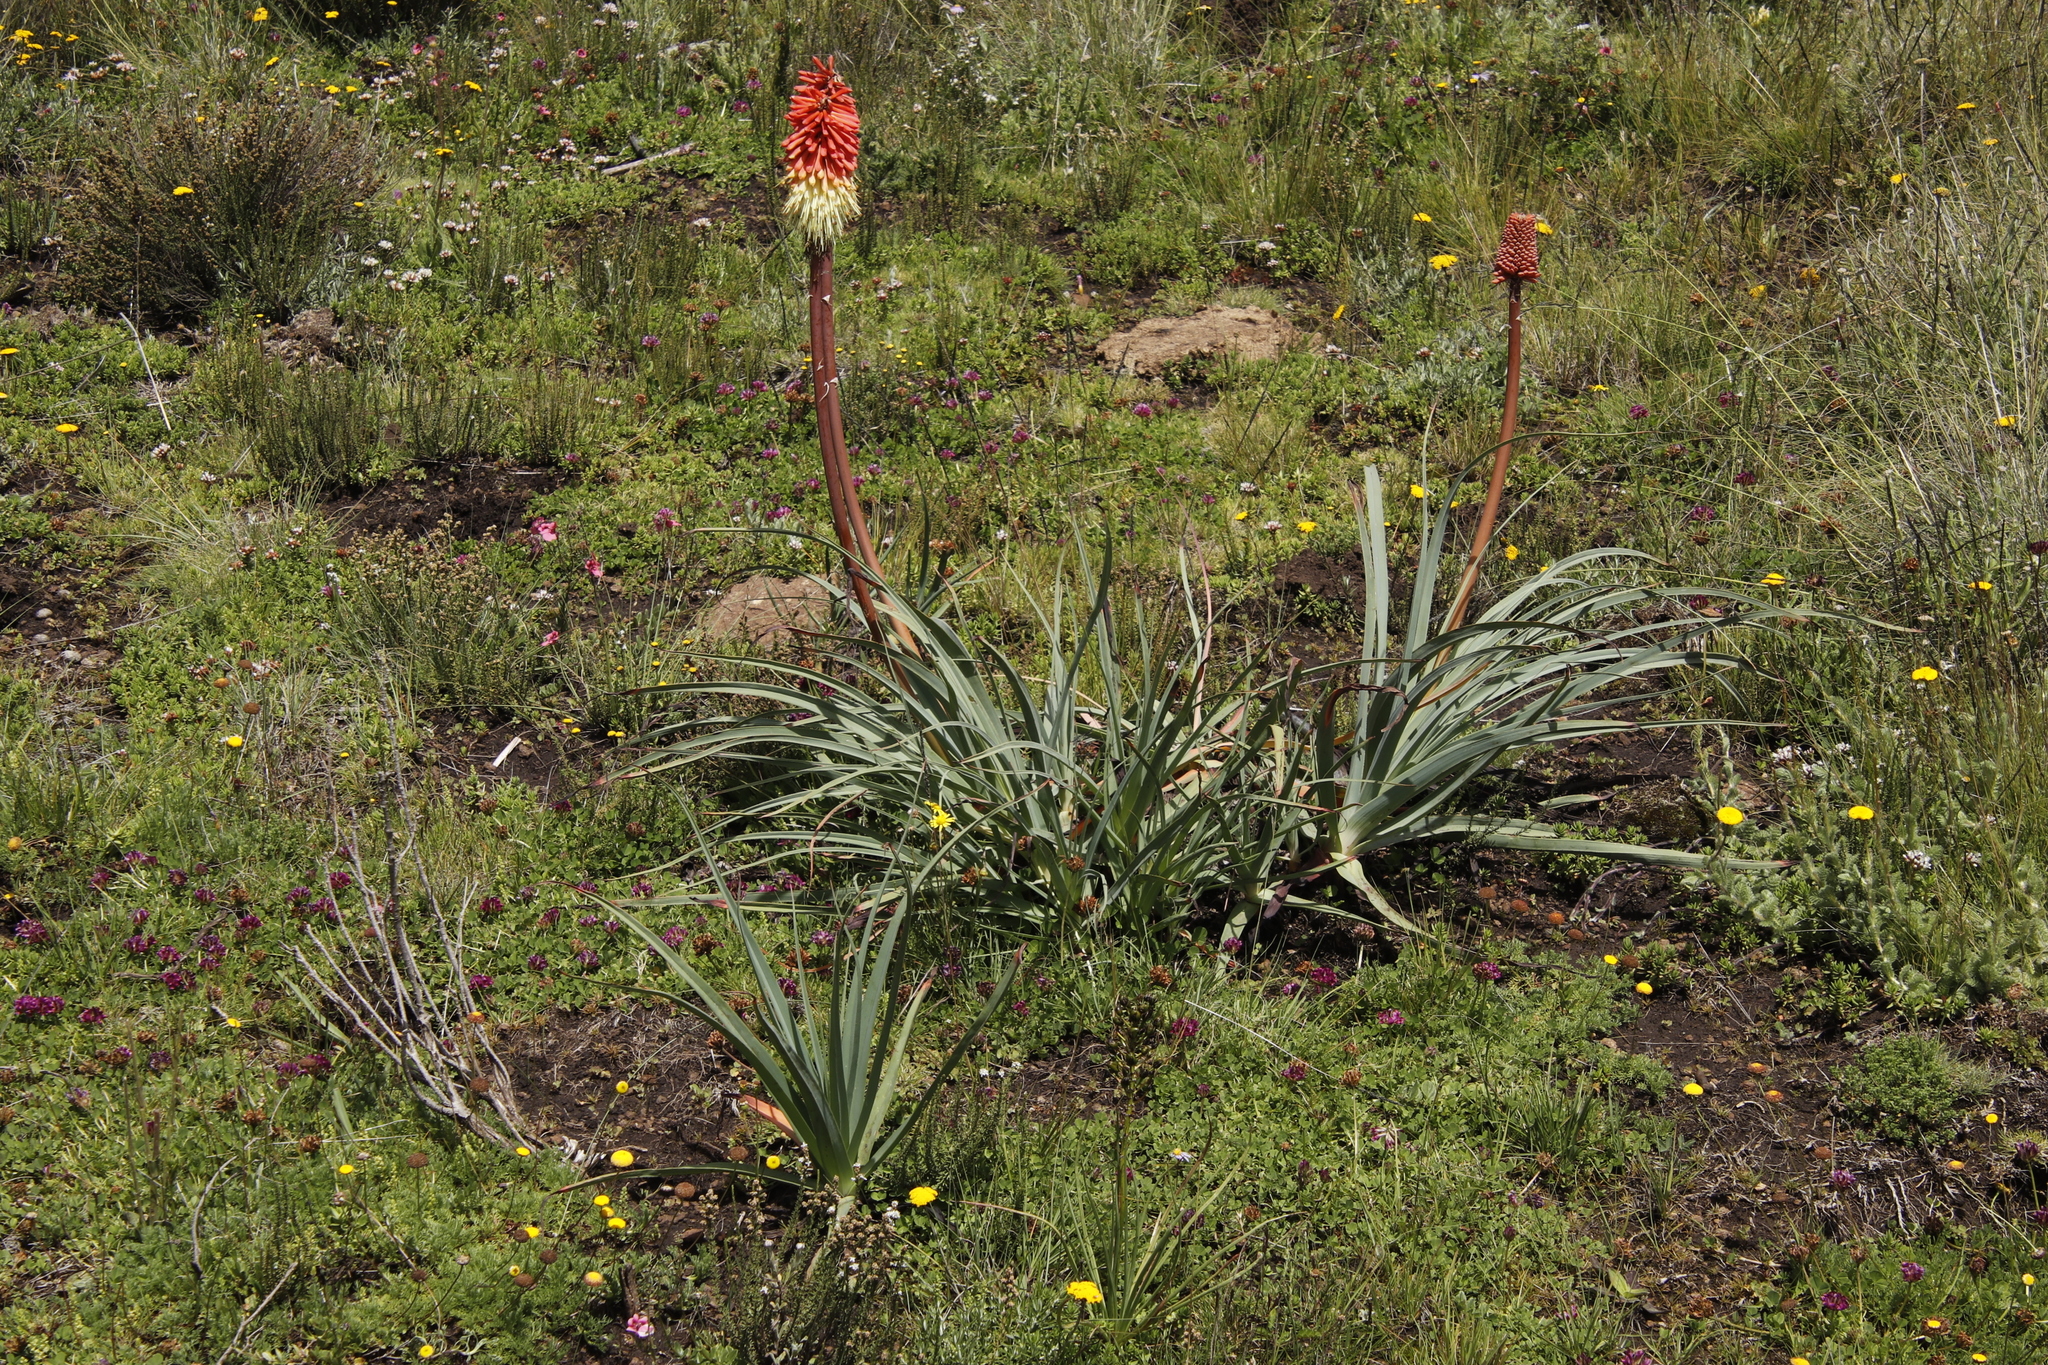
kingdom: Plantae
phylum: Tracheophyta
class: Liliopsida
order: Asparagales
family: Asphodelaceae
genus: Kniphofia
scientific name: Kniphofia caulescens
